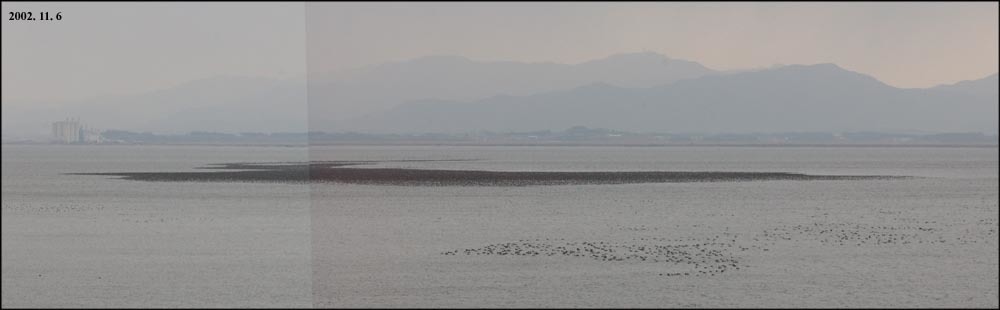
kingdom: Animalia
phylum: Chordata
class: Aves
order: Anseriformes
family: Anatidae
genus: Sibirionetta
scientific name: Sibirionetta formosa
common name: Baikal teal
